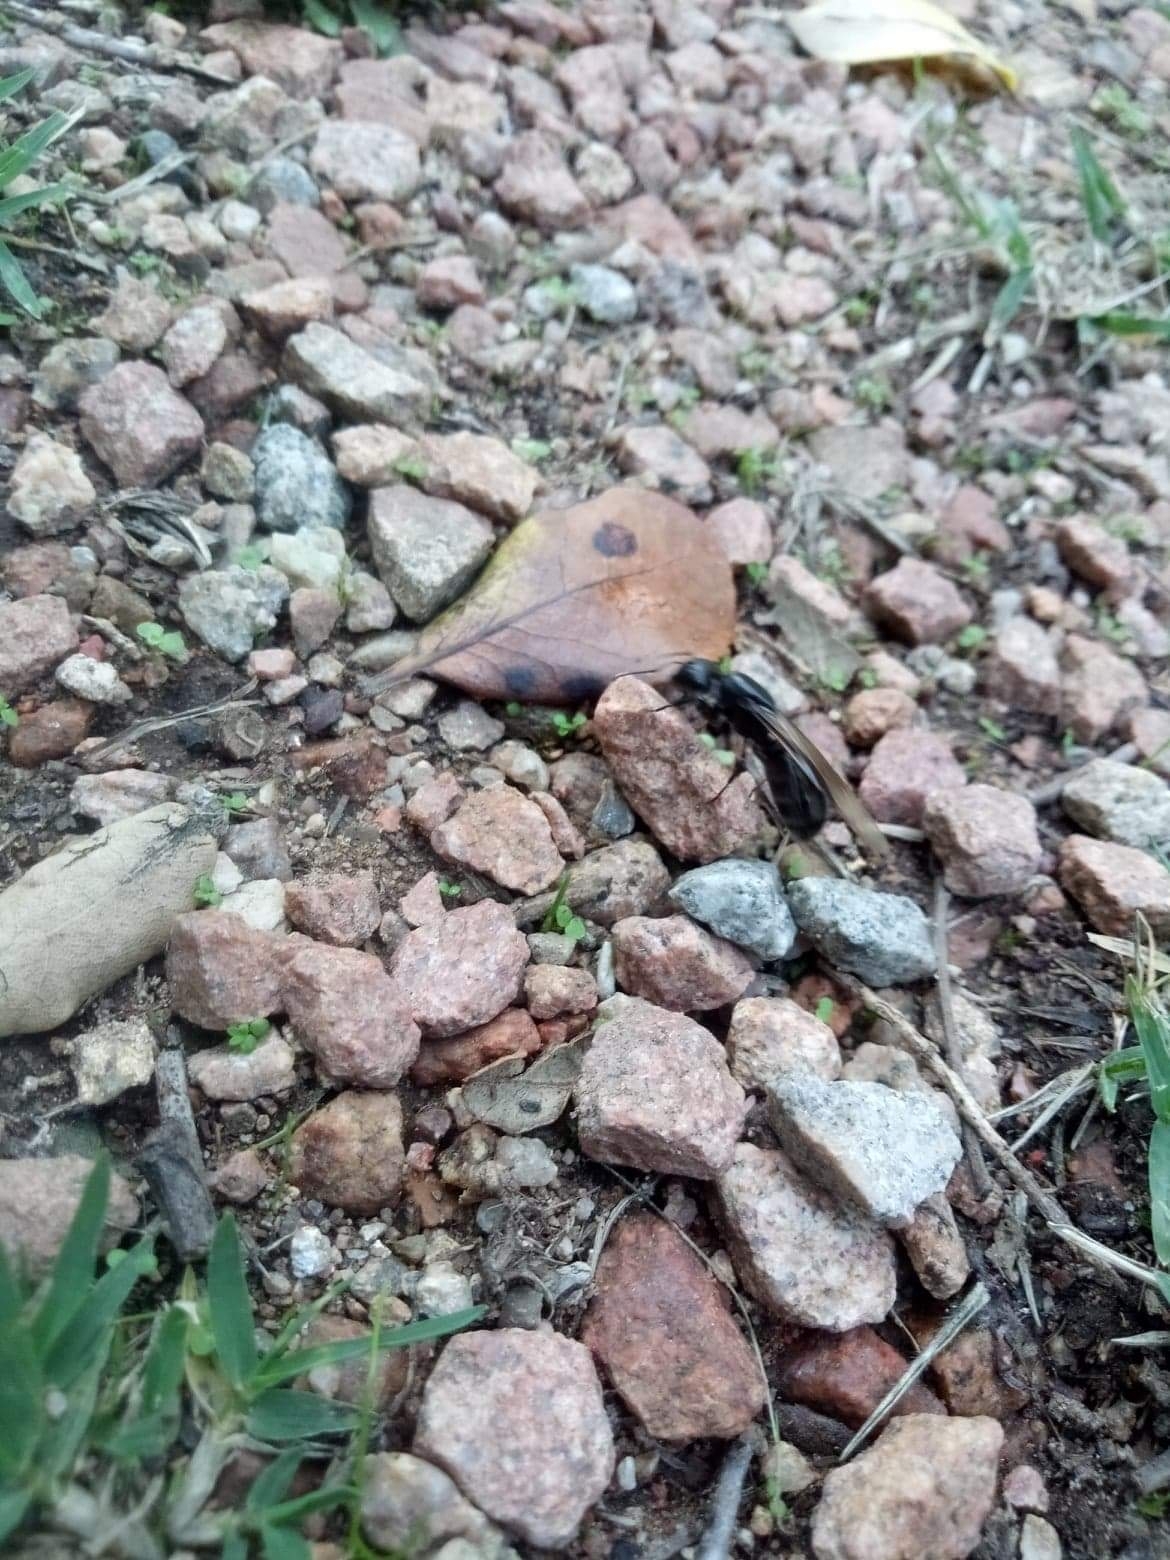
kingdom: Animalia
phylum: Arthropoda
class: Insecta
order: Hymenoptera
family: Formicidae
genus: Camponotus
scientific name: Camponotus vagus
